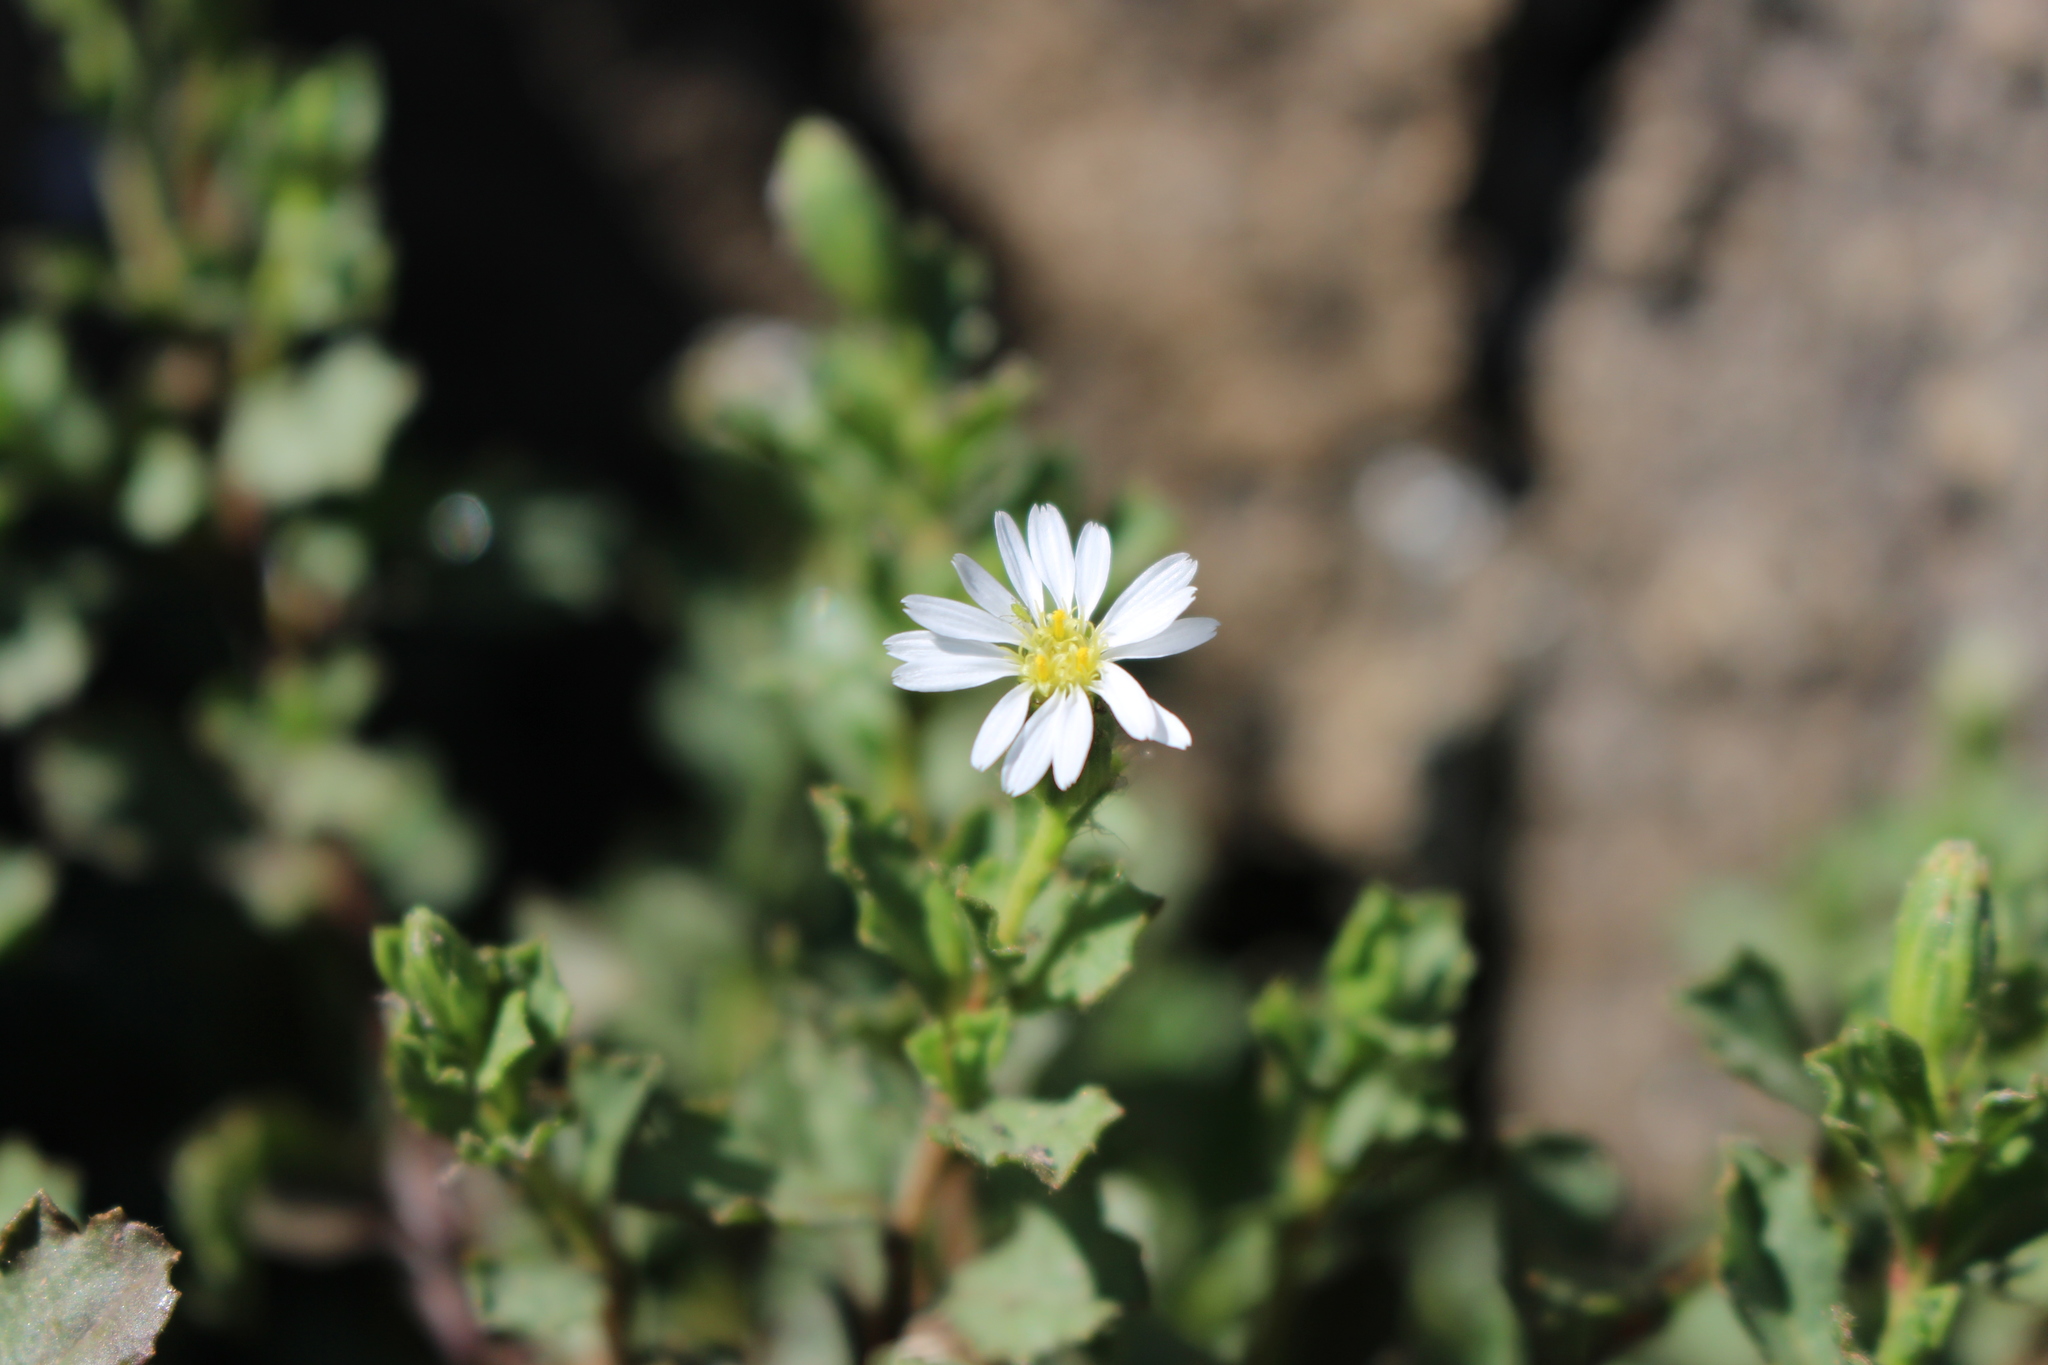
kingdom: Plantae
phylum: Tracheophyta
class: Magnoliopsida
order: Asterales
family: Asteraceae
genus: Vittadinia
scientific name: Vittadinia australis
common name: White fuzzweed
